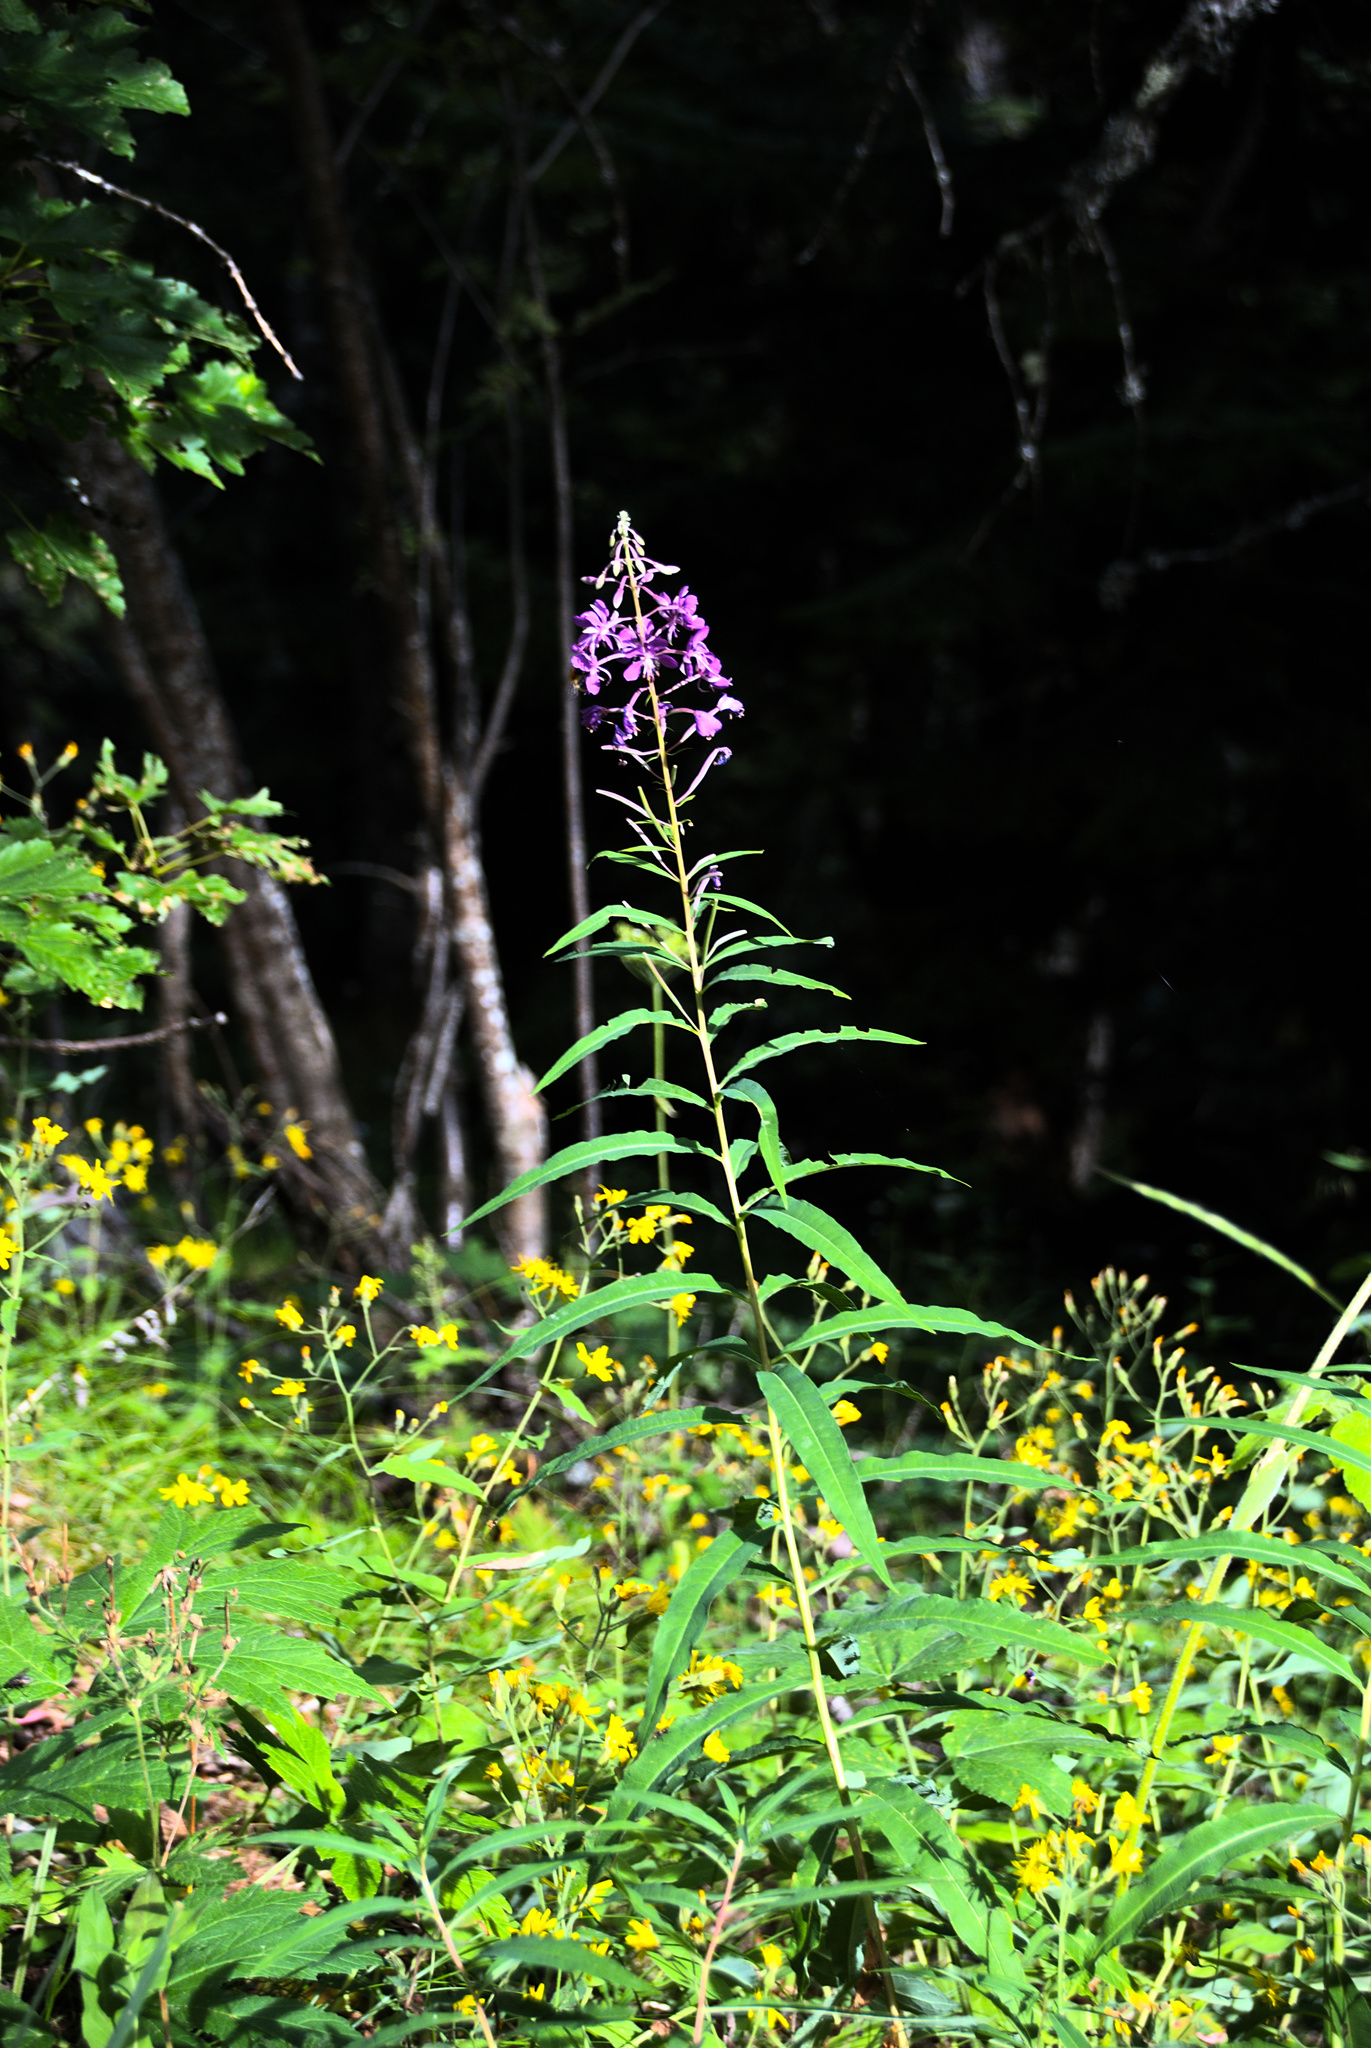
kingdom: Plantae
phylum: Tracheophyta
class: Magnoliopsida
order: Myrtales
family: Onagraceae
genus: Chamaenerion
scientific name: Chamaenerion angustifolium
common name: Fireweed
